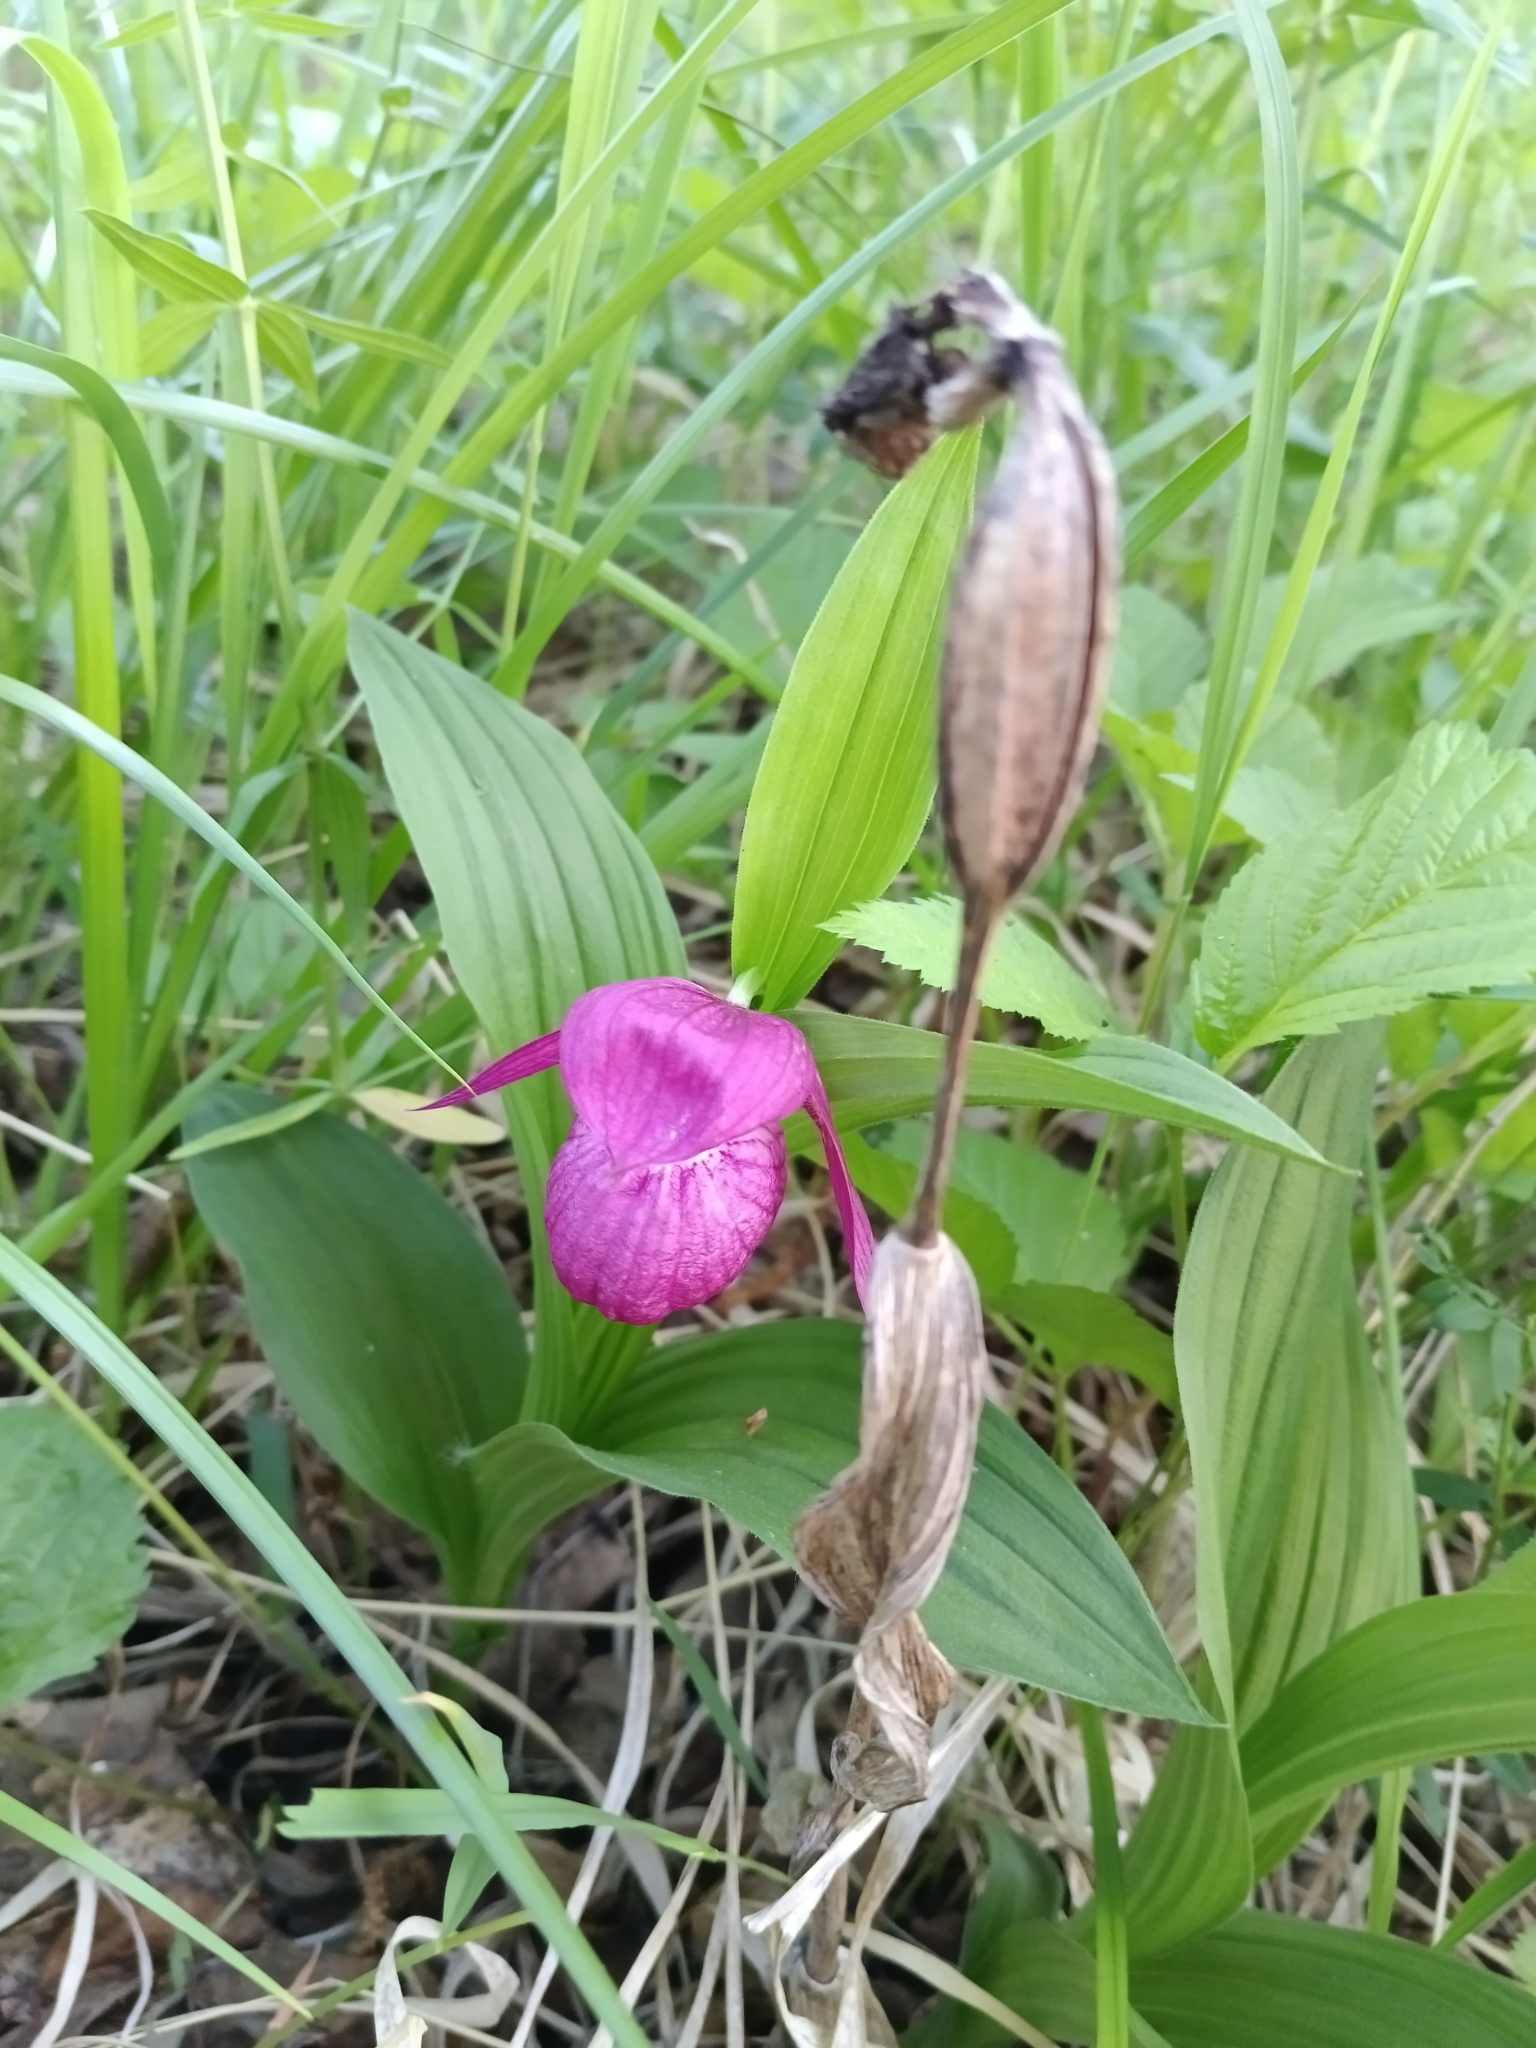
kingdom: Plantae
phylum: Tracheophyta
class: Liliopsida
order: Asparagales
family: Orchidaceae
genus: Cypripedium
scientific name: Cypripedium macranthos
